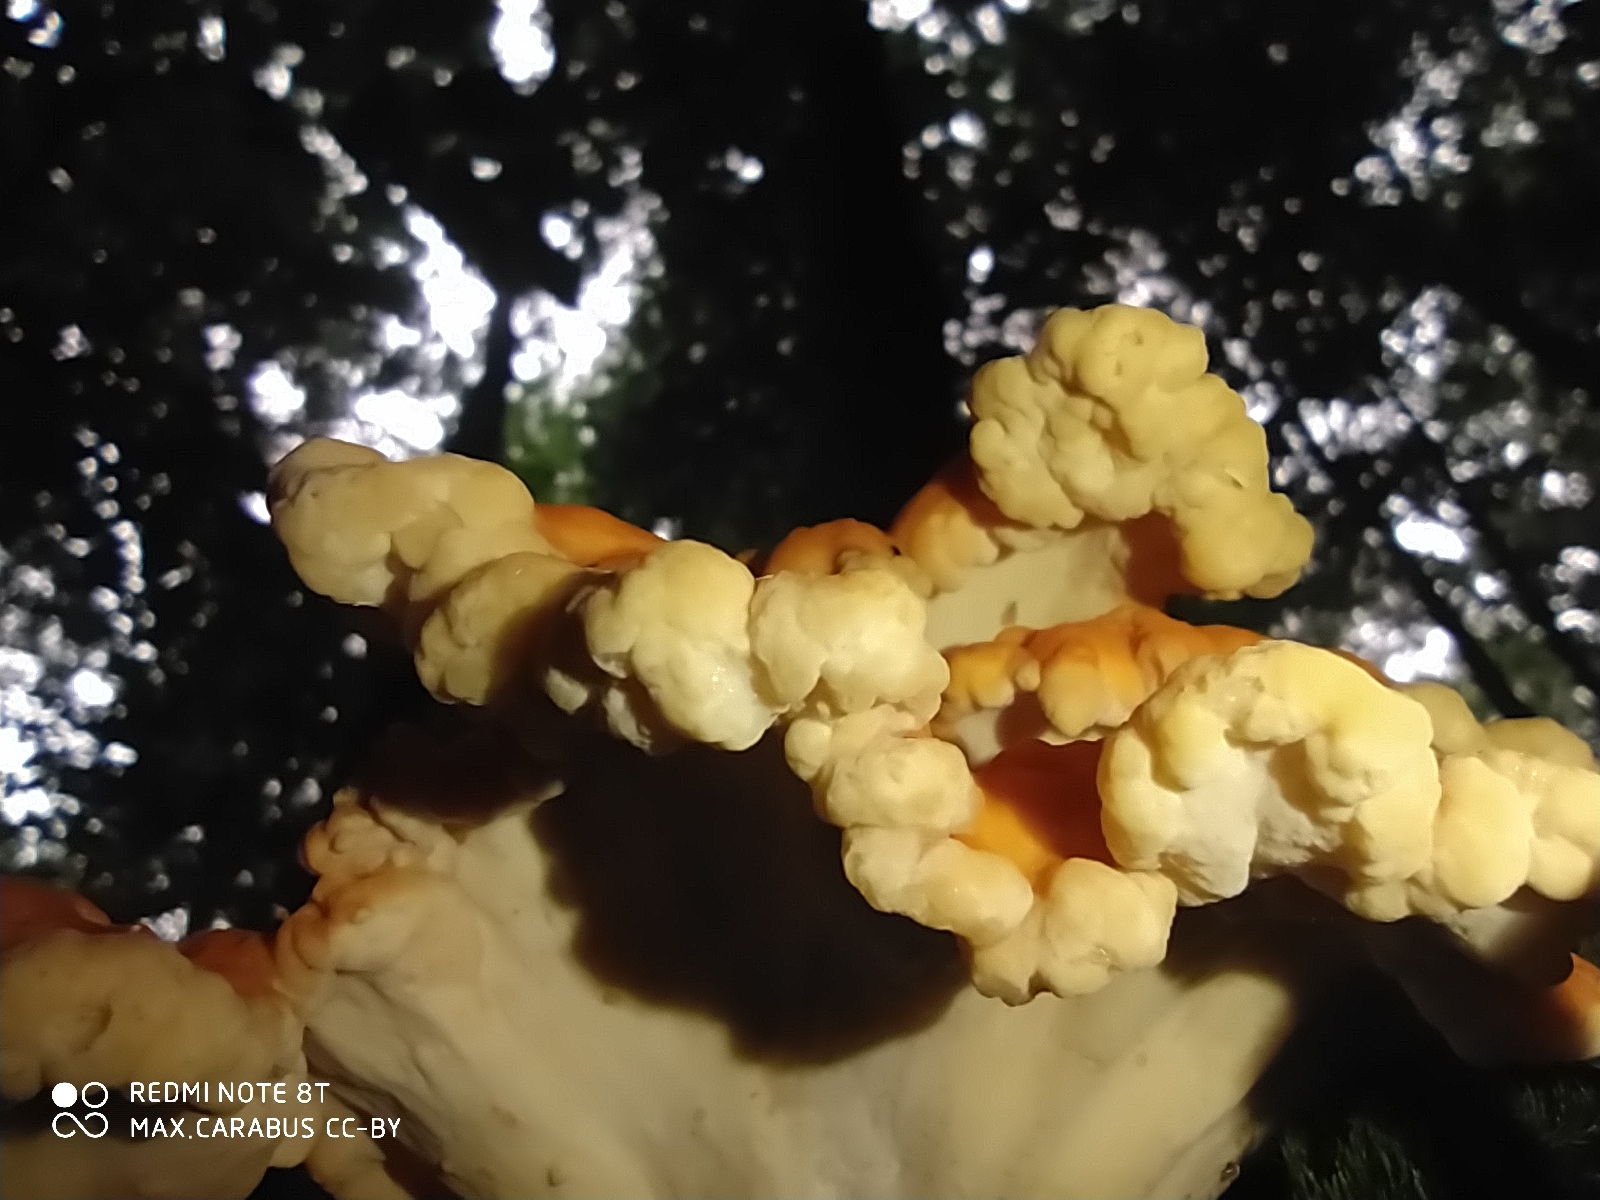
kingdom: Fungi
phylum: Basidiomycota
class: Agaricomycetes
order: Polyporales
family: Laetiporaceae
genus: Laetiporus
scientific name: Laetiporus sulphureus
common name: Chicken of the woods
